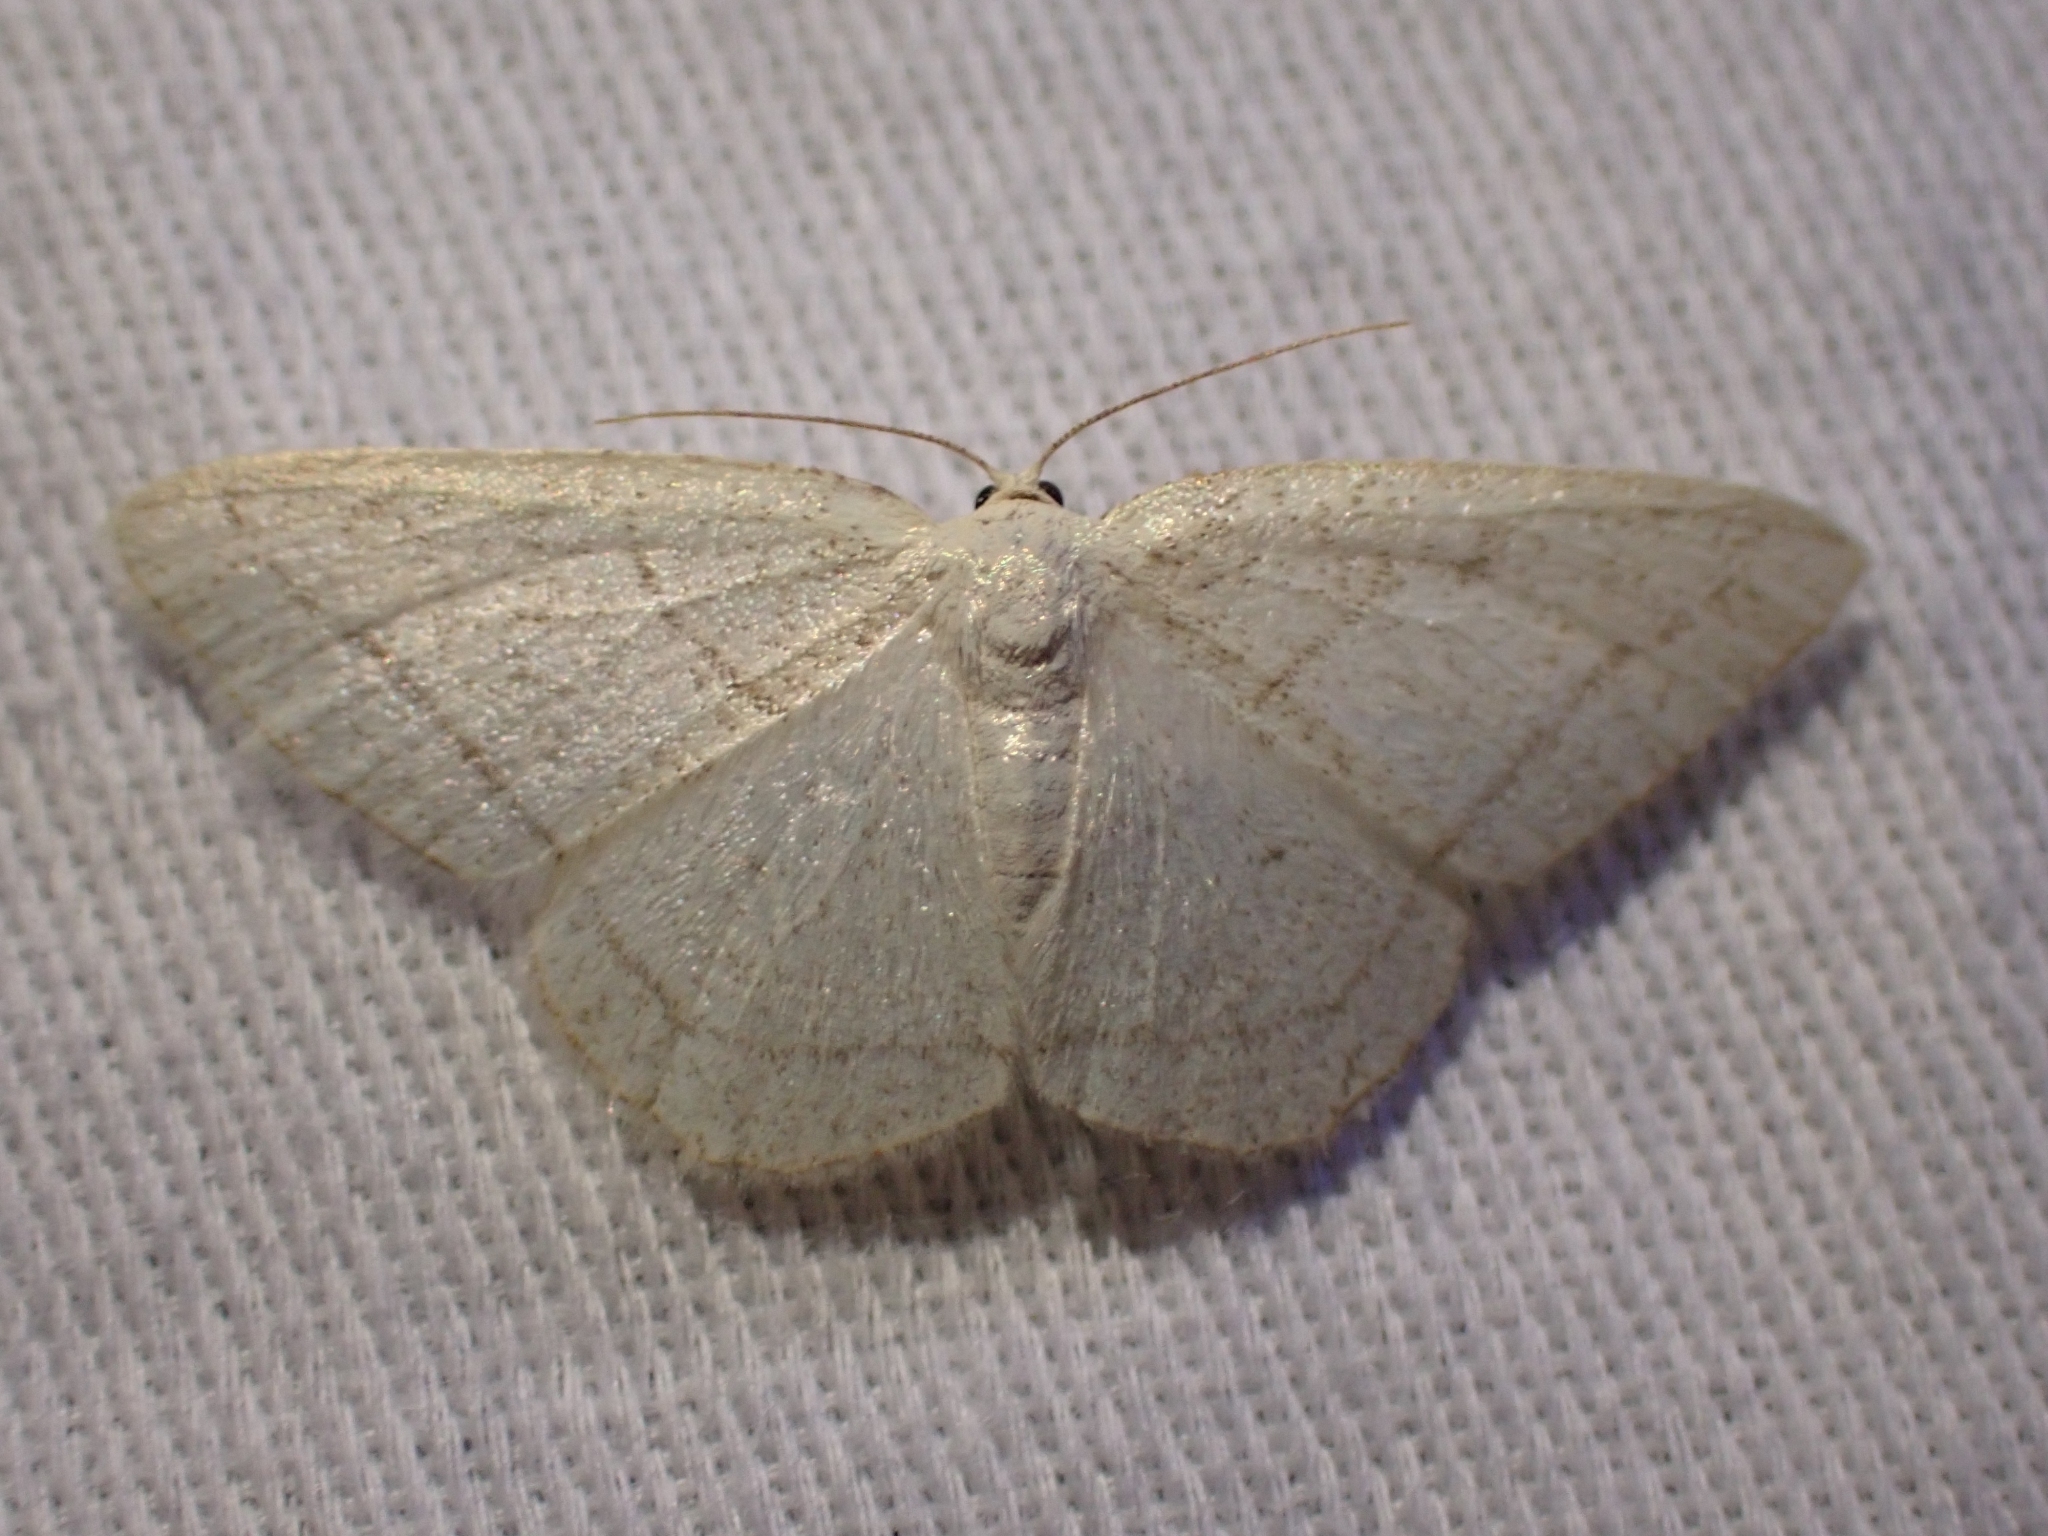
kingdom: Animalia
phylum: Arthropoda
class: Insecta
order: Lepidoptera
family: Geometridae
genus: Protitame
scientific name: Protitame subalbaria
